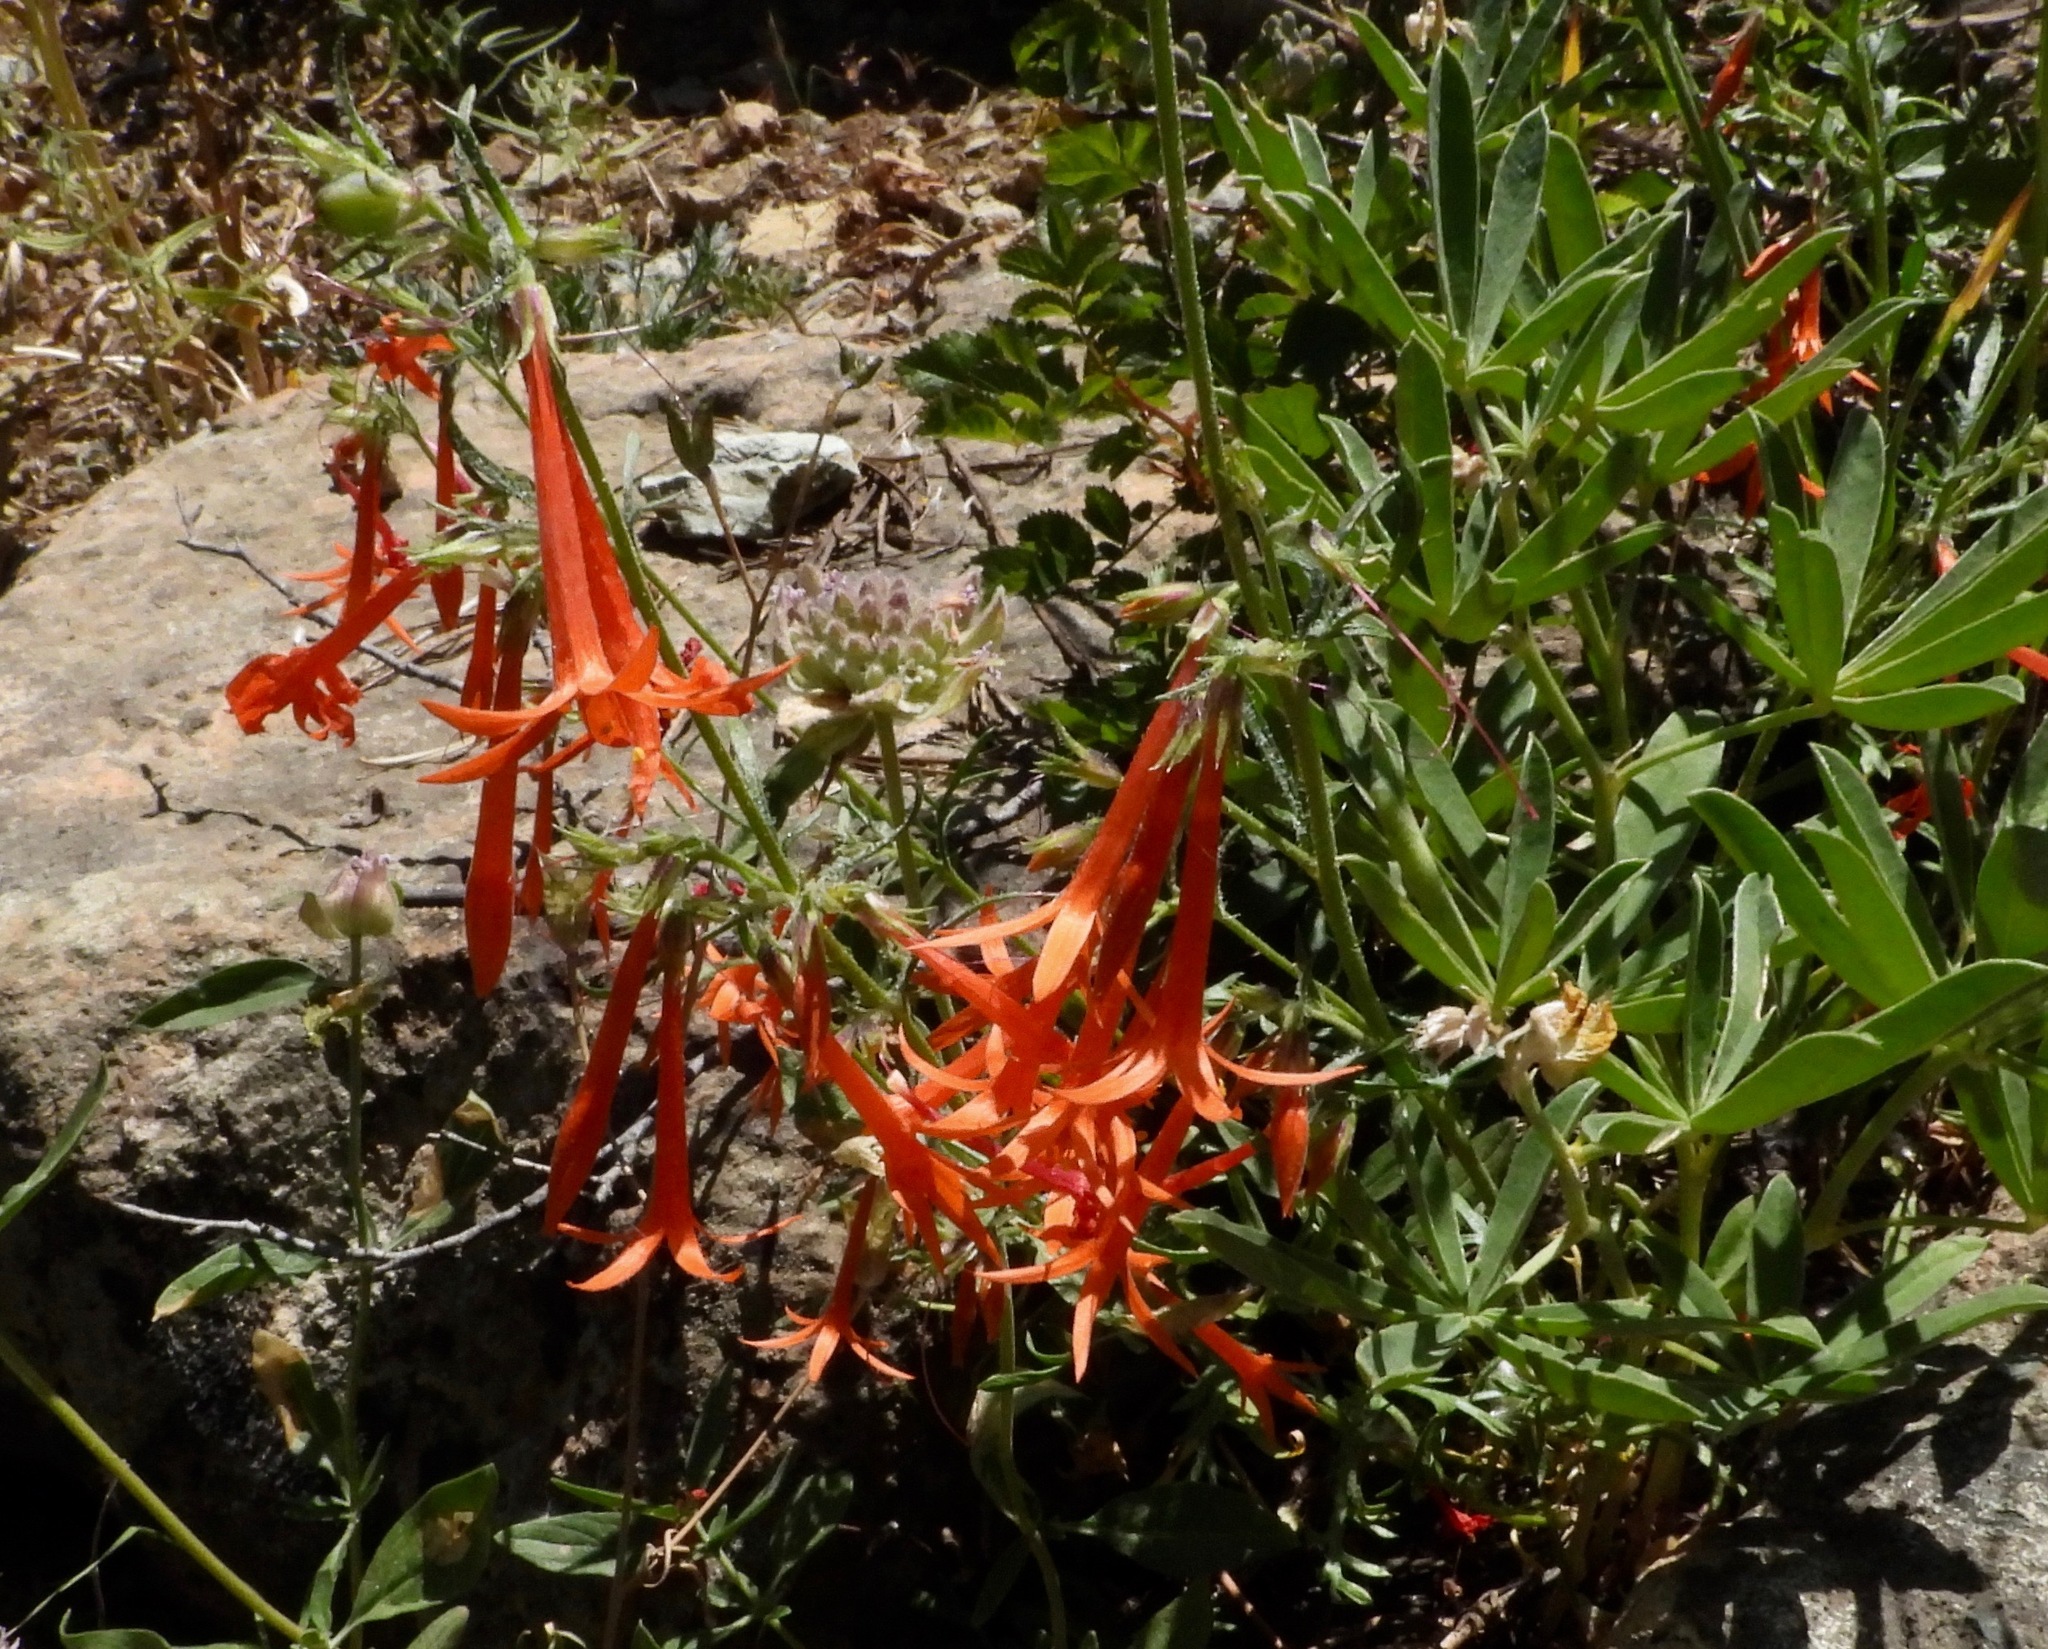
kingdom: Plantae
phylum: Tracheophyta
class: Magnoliopsida
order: Ericales
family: Polemoniaceae
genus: Ipomopsis
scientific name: Ipomopsis aggregata
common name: Scarlet gilia
